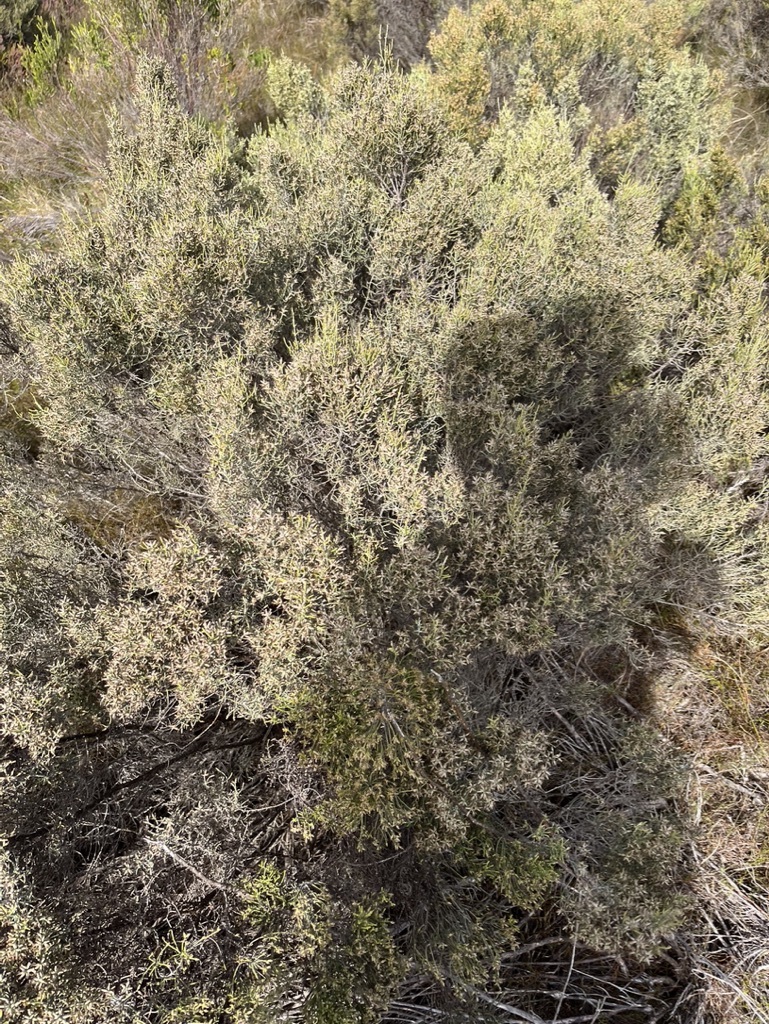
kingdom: Plantae
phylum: Tracheophyta
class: Magnoliopsida
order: Asterales
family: Asteraceae
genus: Dicerothamnus
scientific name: Dicerothamnus rhinocerotis
